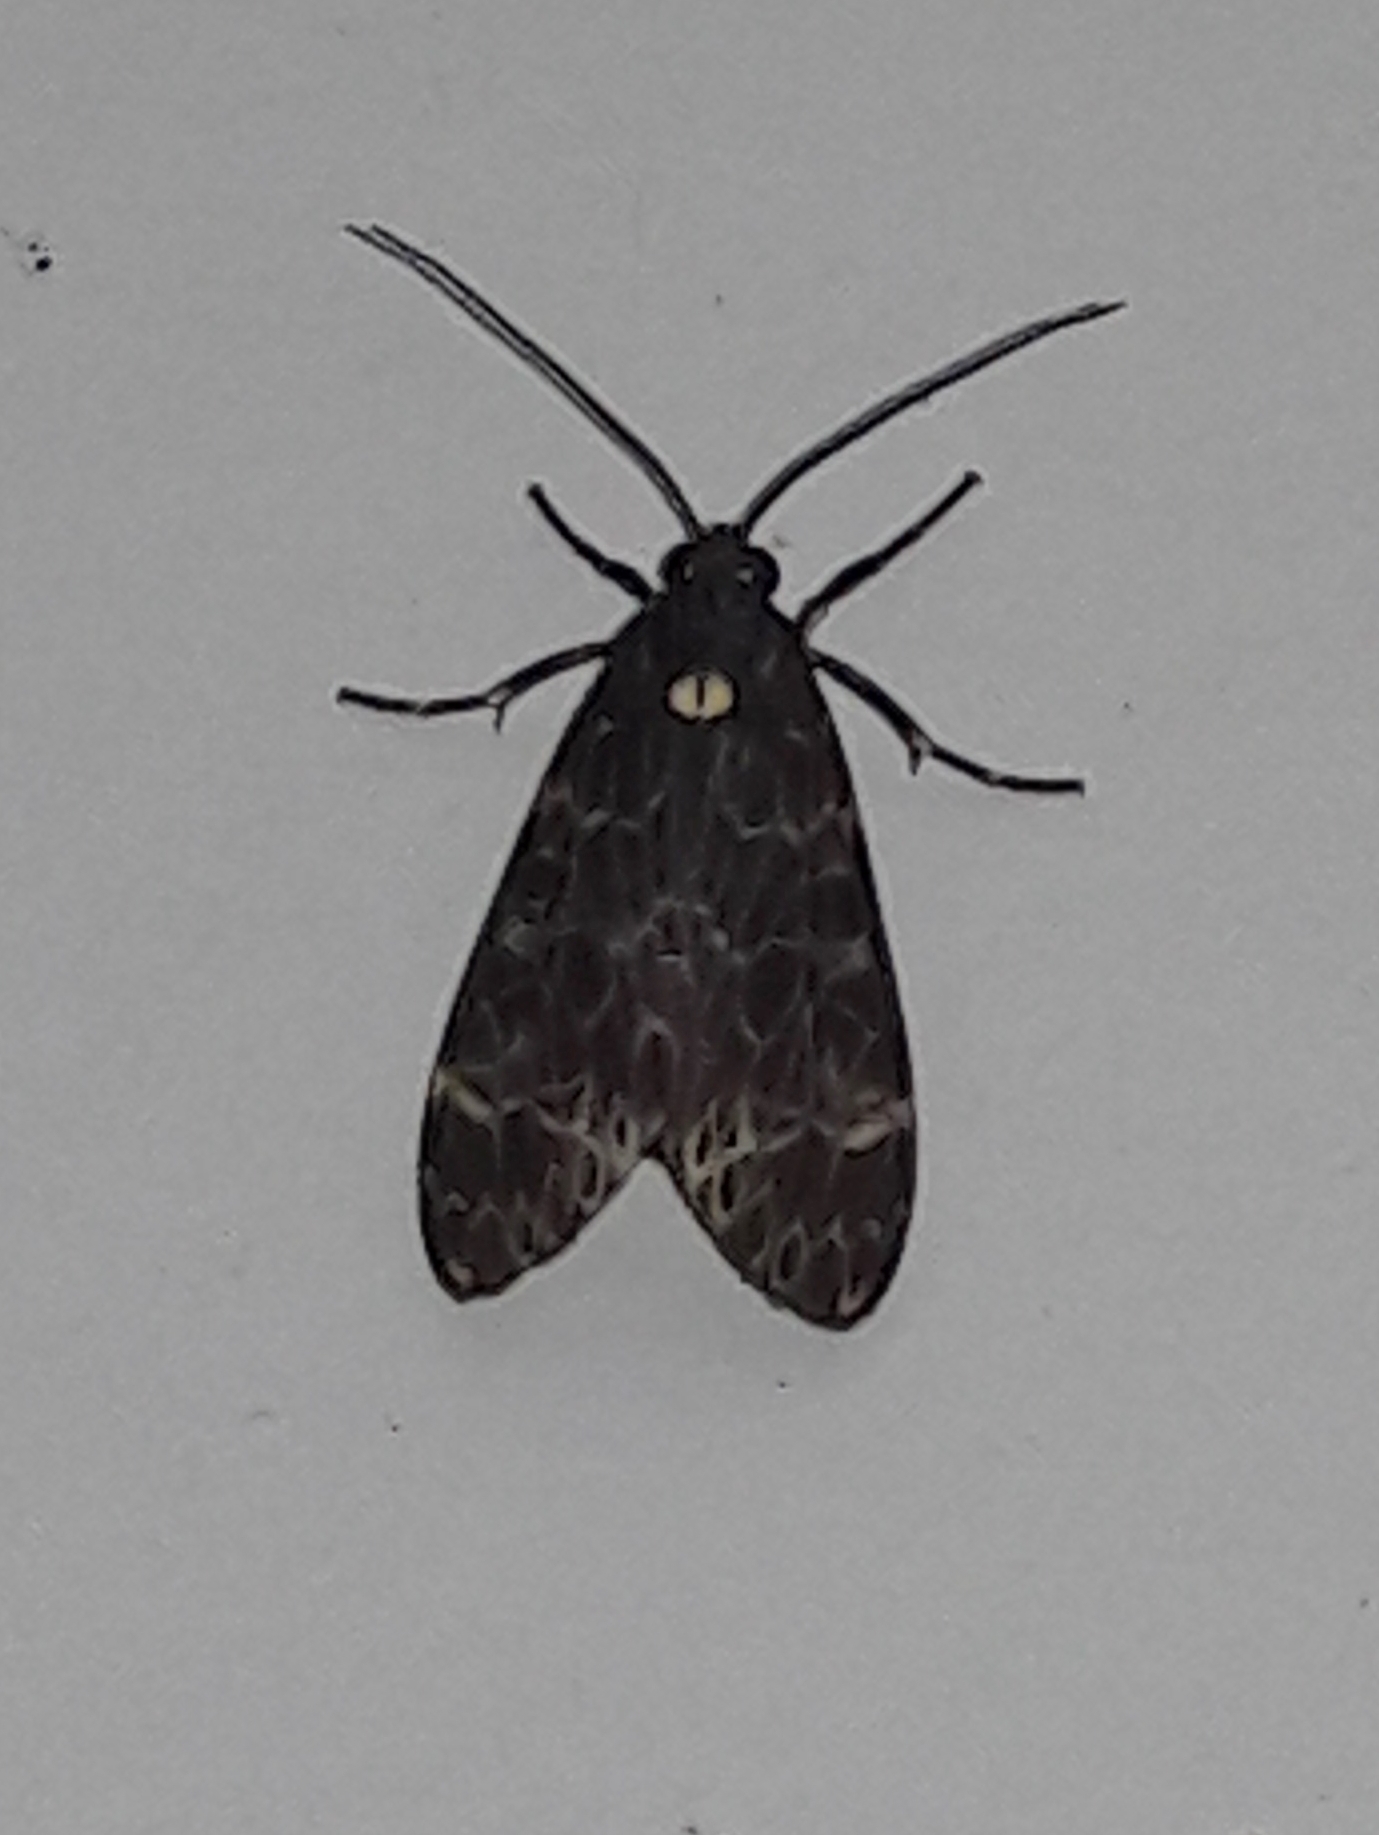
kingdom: Animalia
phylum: Arthropoda
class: Insecta
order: Lepidoptera
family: Erebidae
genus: Eucereon
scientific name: Eucereon sylvius
